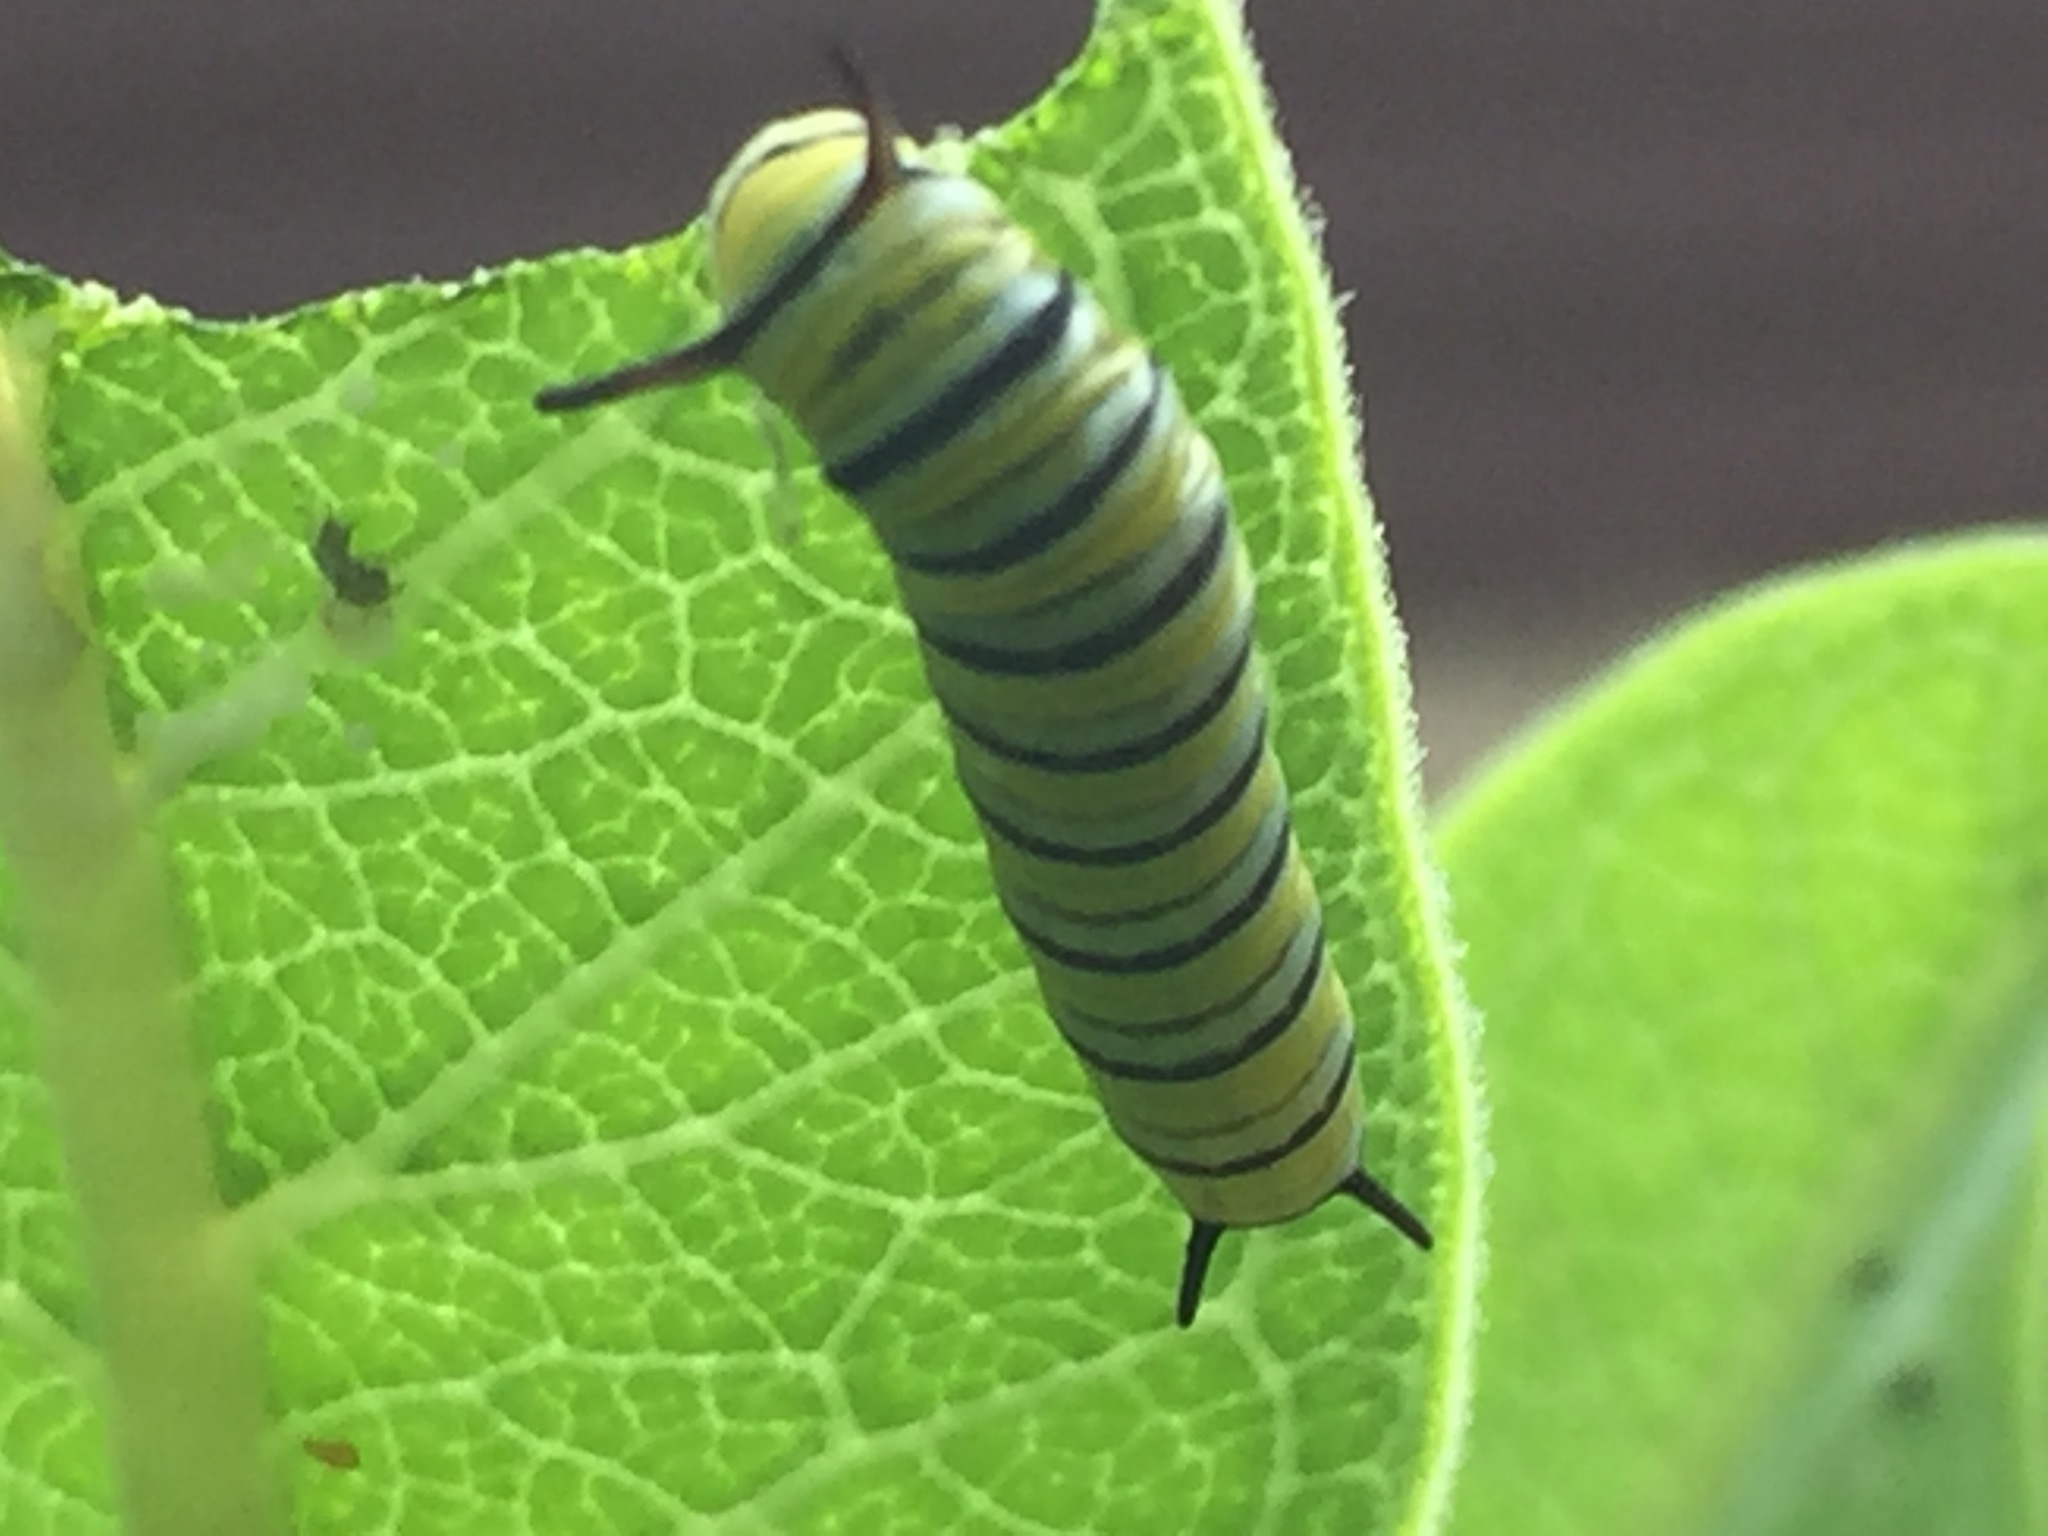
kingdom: Animalia
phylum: Arthropoda
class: Insecta
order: Lepidoptera
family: Nymphalidae
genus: Danaus
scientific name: Danaus plexippus
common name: Monarch
